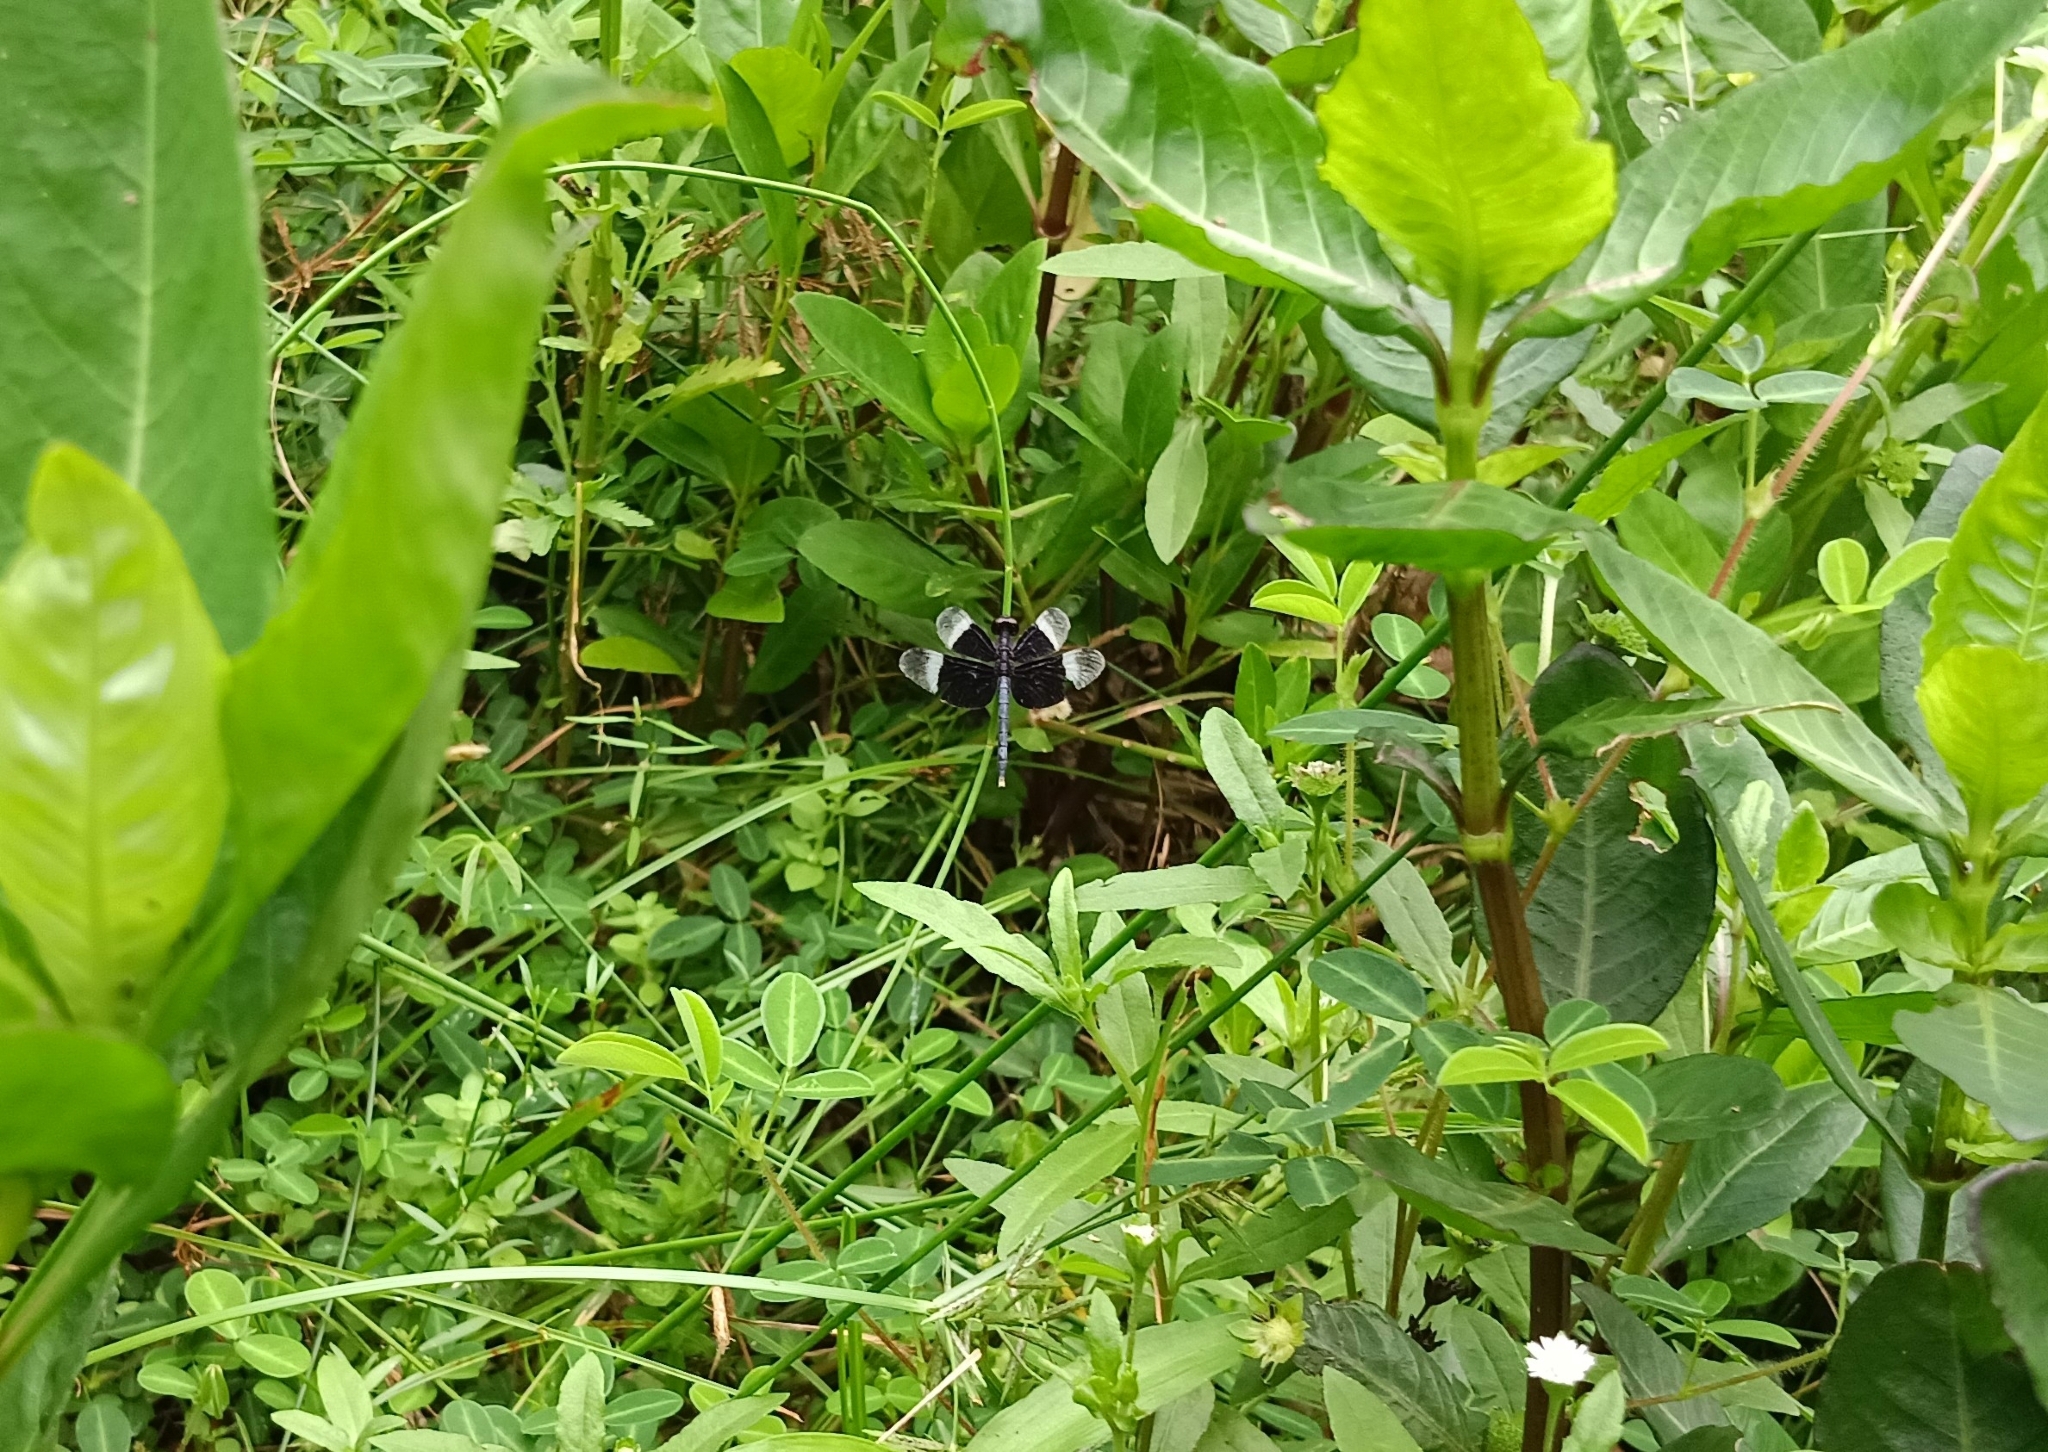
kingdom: Animalia
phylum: Arthropoda
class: Insecta
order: Odonata
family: Libellulidae
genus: Neurothemis
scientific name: Neurothemis tullia
